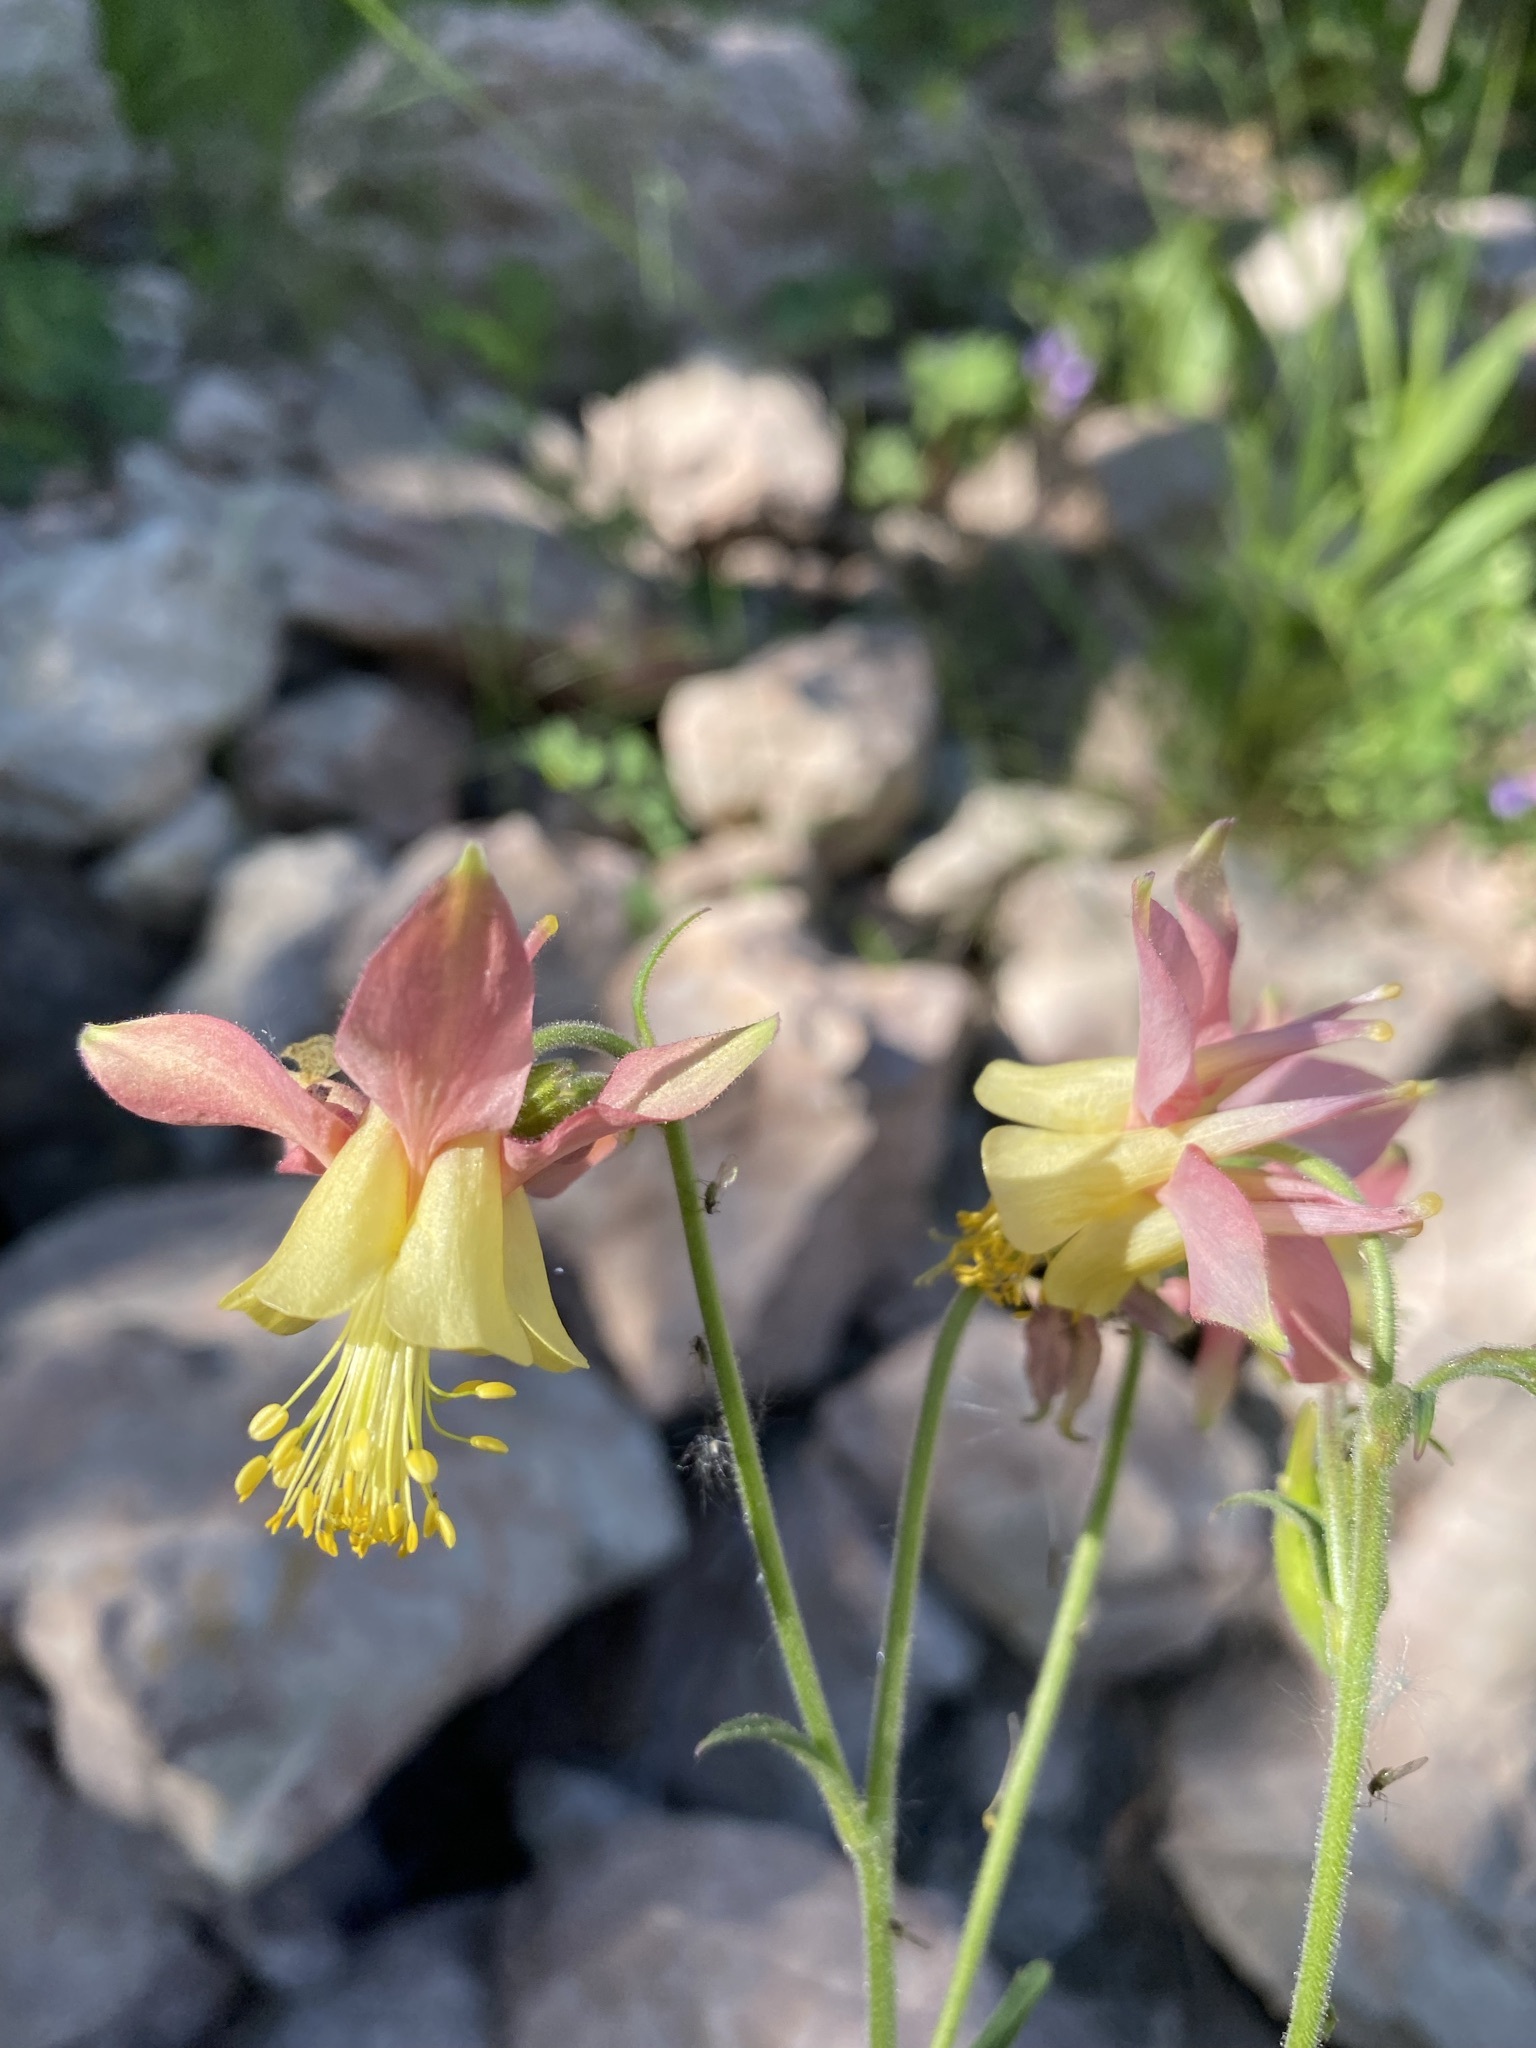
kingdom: Plantae
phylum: Tracheophyta
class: Magnoliopsida
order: Ranunculales
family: Ranunculaceae
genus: Aquilegia
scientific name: Aquilegia flavescens
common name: Yellow columbine
